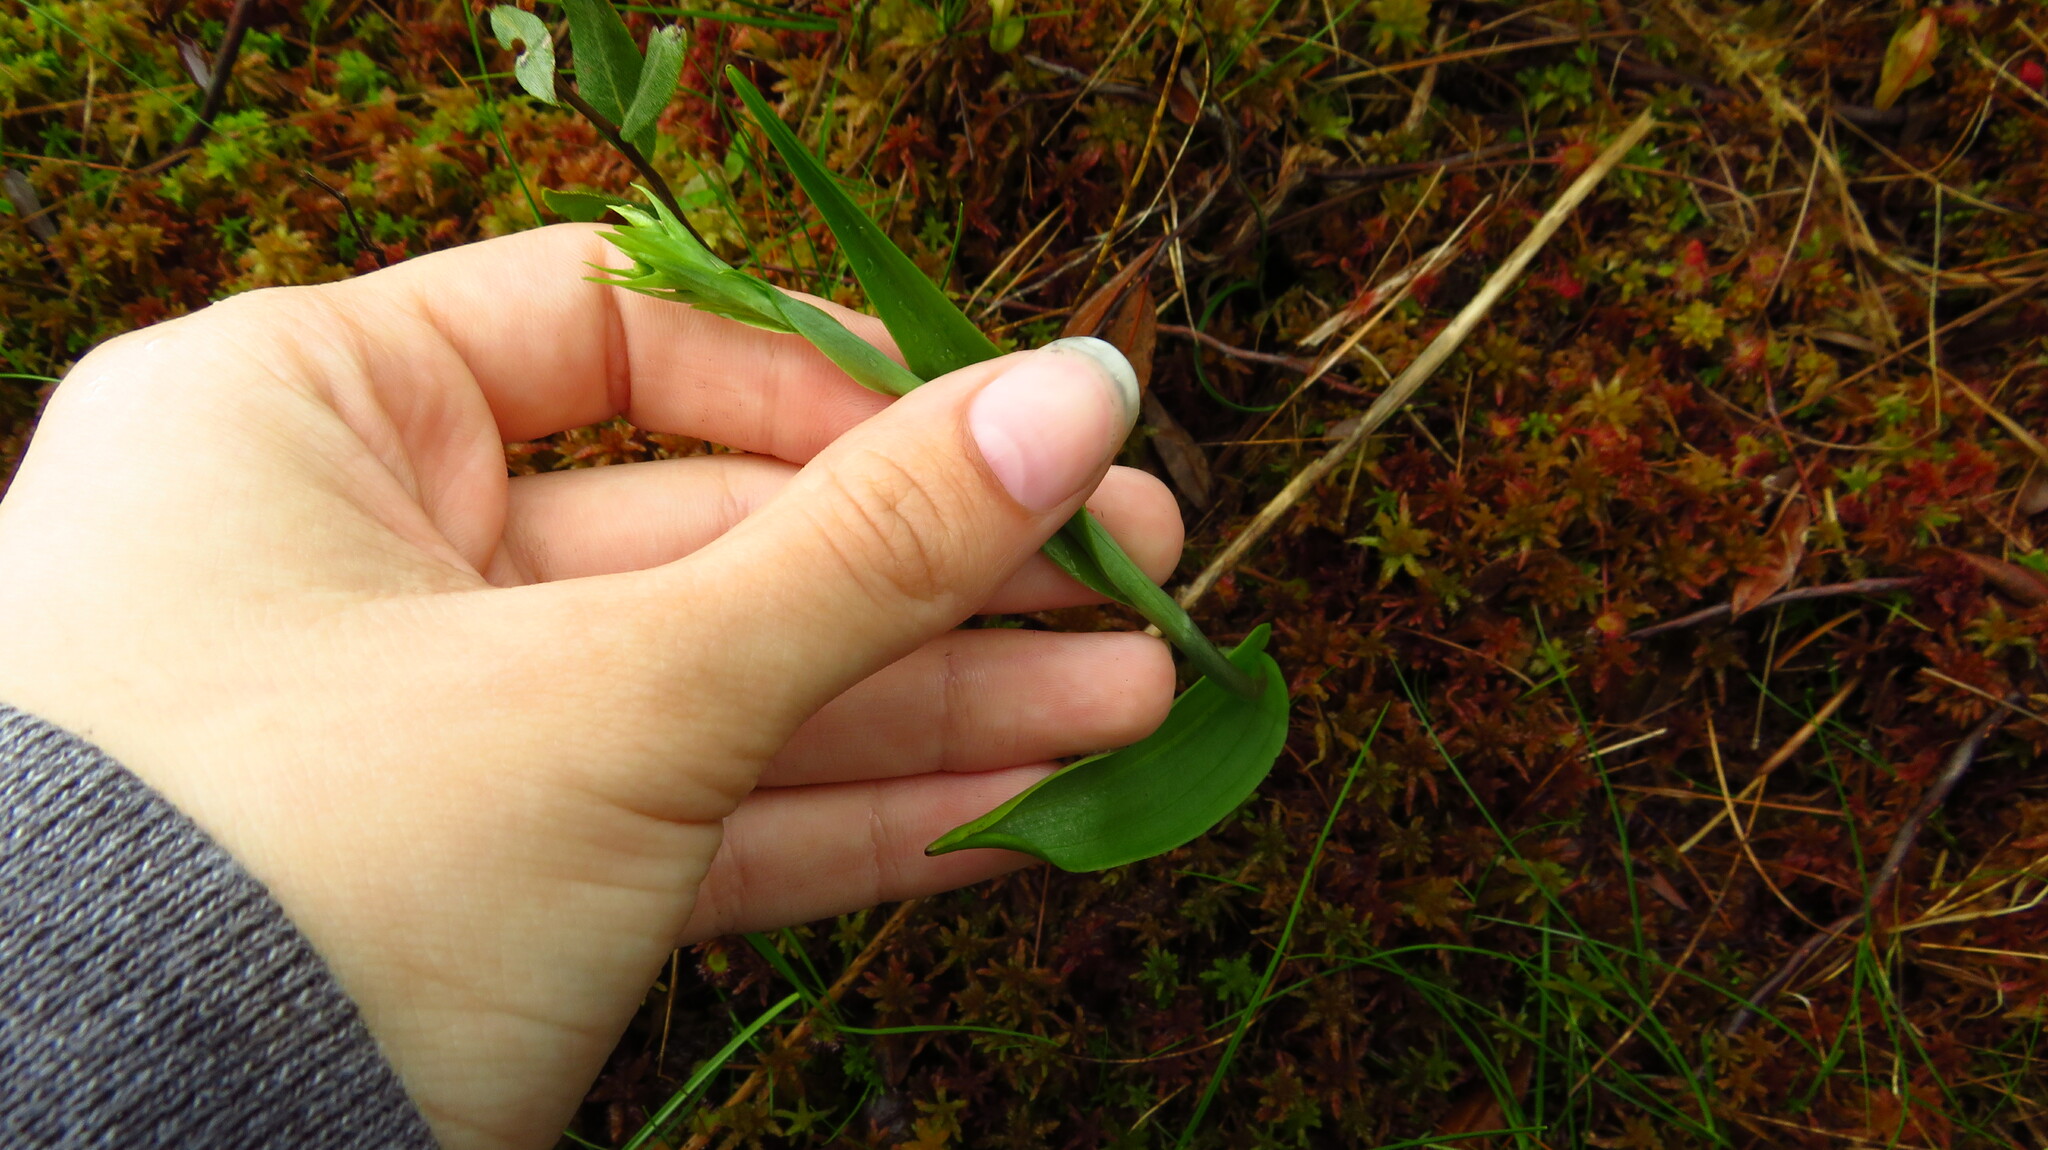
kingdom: Plantae
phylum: Tracheophyta
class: Liliopsida
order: Asparagales
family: Orchidaceae
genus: Platanthera
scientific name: Platanthera blephariglottis
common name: White fringed orchid
